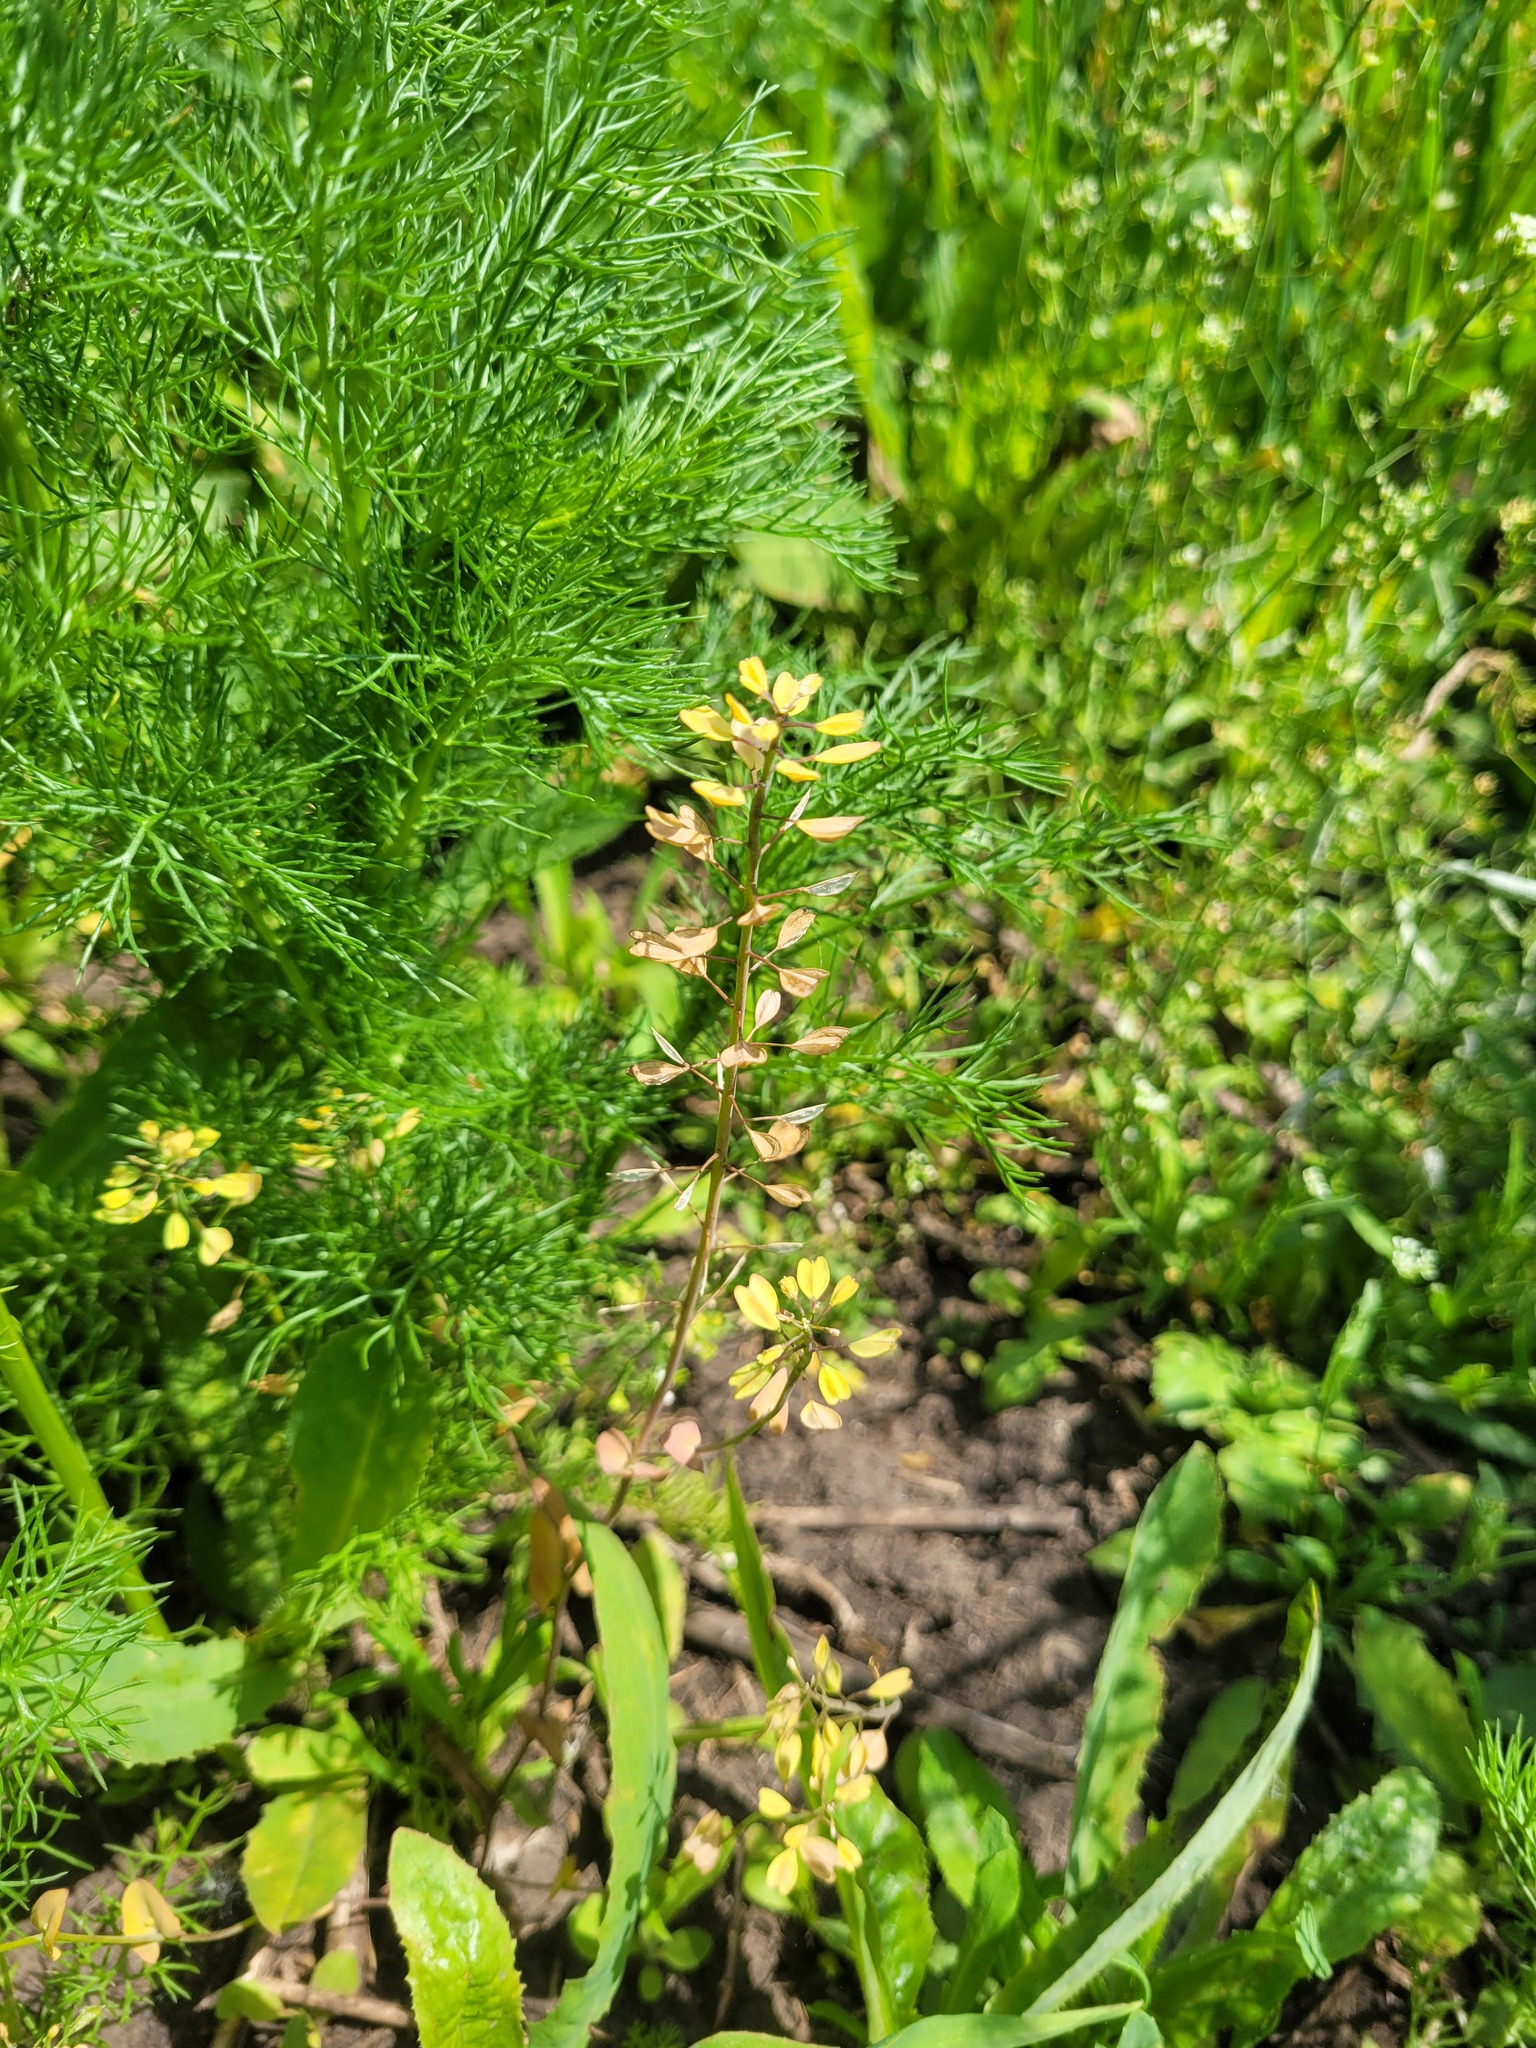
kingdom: Plantae
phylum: Tracheophyta
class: Magnoliopsida
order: Brassicales
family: Brassicaceae
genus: Noccaea
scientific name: Noccaea perfoliata
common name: Perfoliate pennycress
